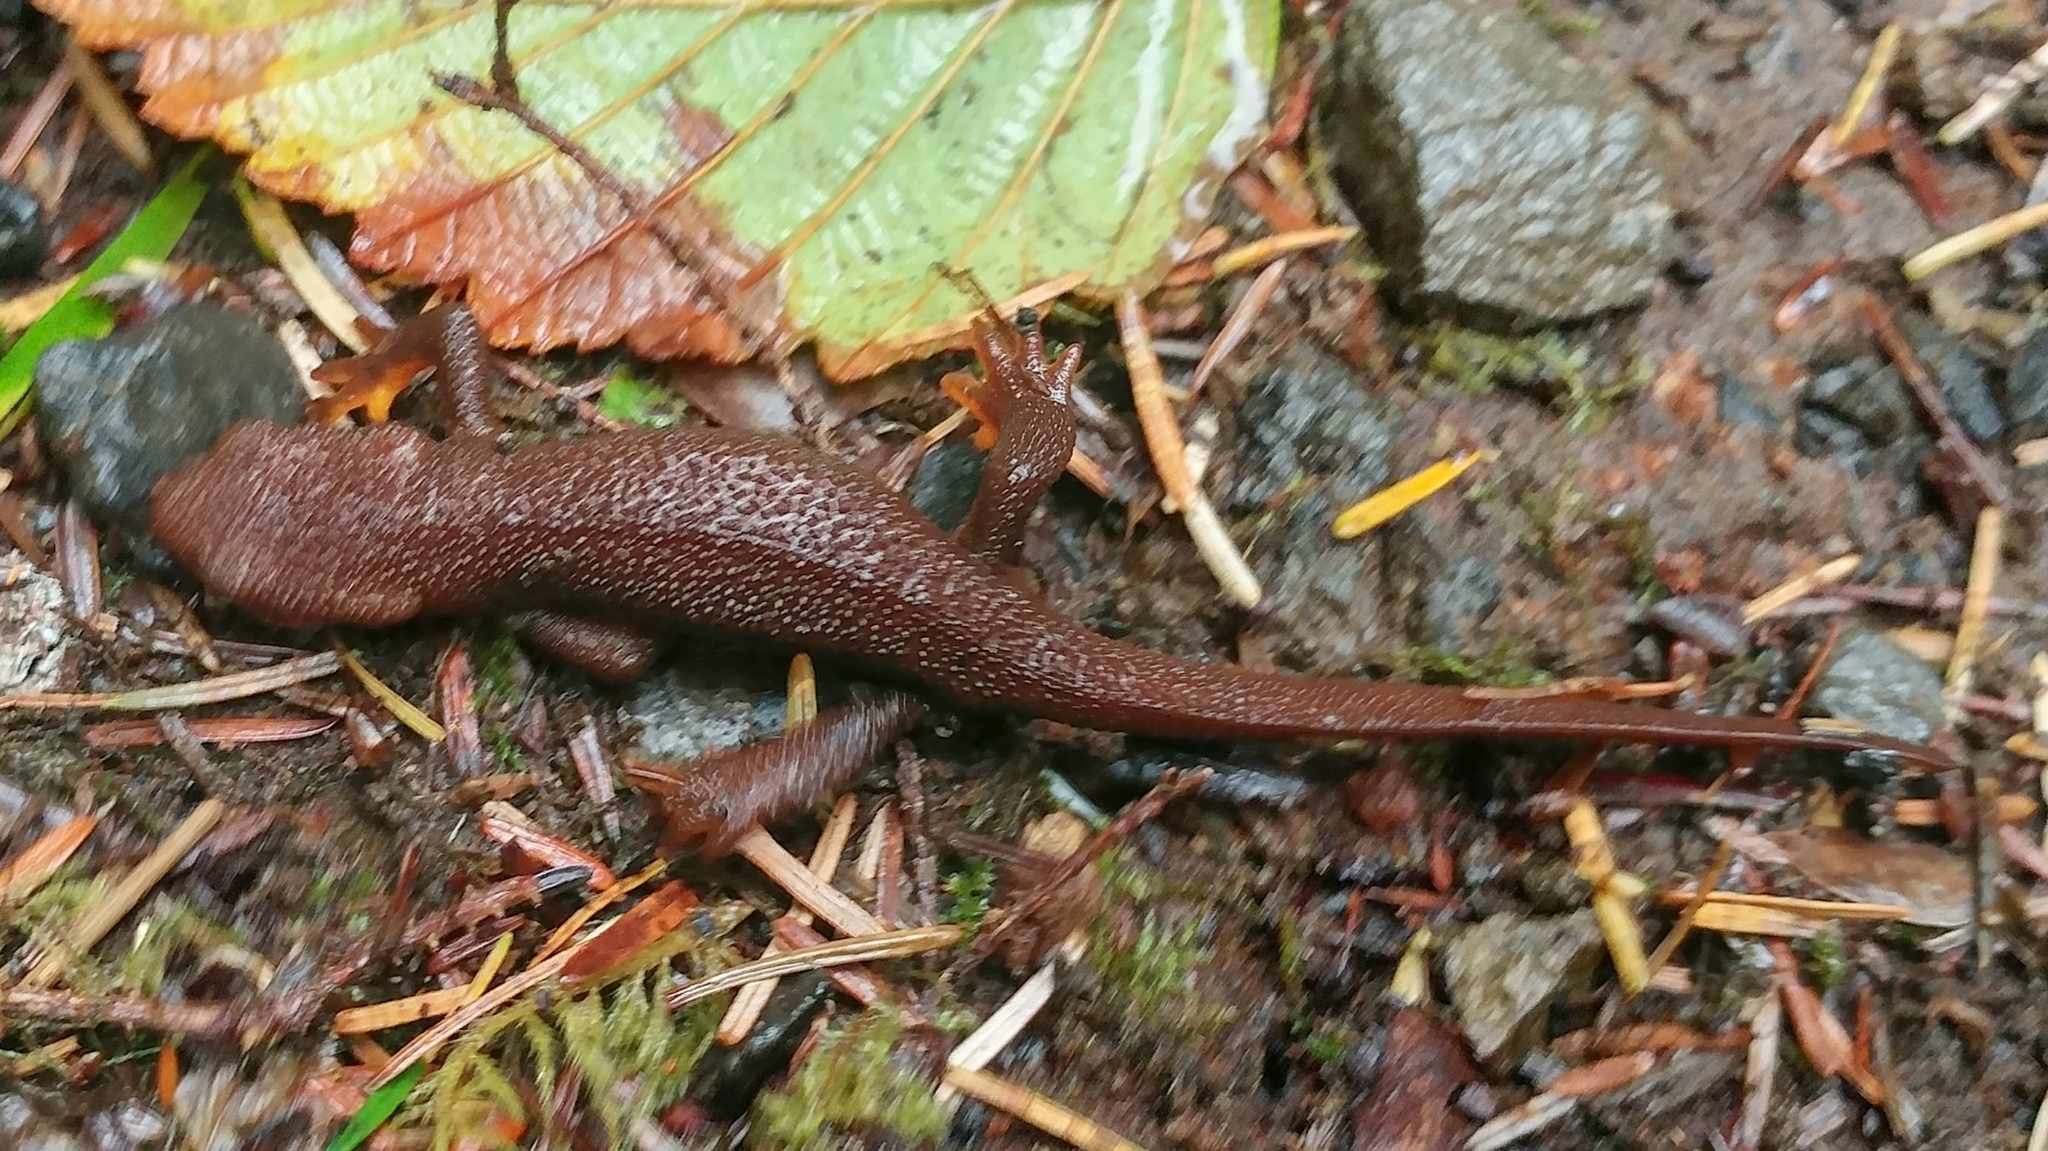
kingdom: Animalia
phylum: Chordata
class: Amphibia
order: Caudata
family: Salamandridae
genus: Taricha
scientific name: Taricha granulosa
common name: Roughskin newt
